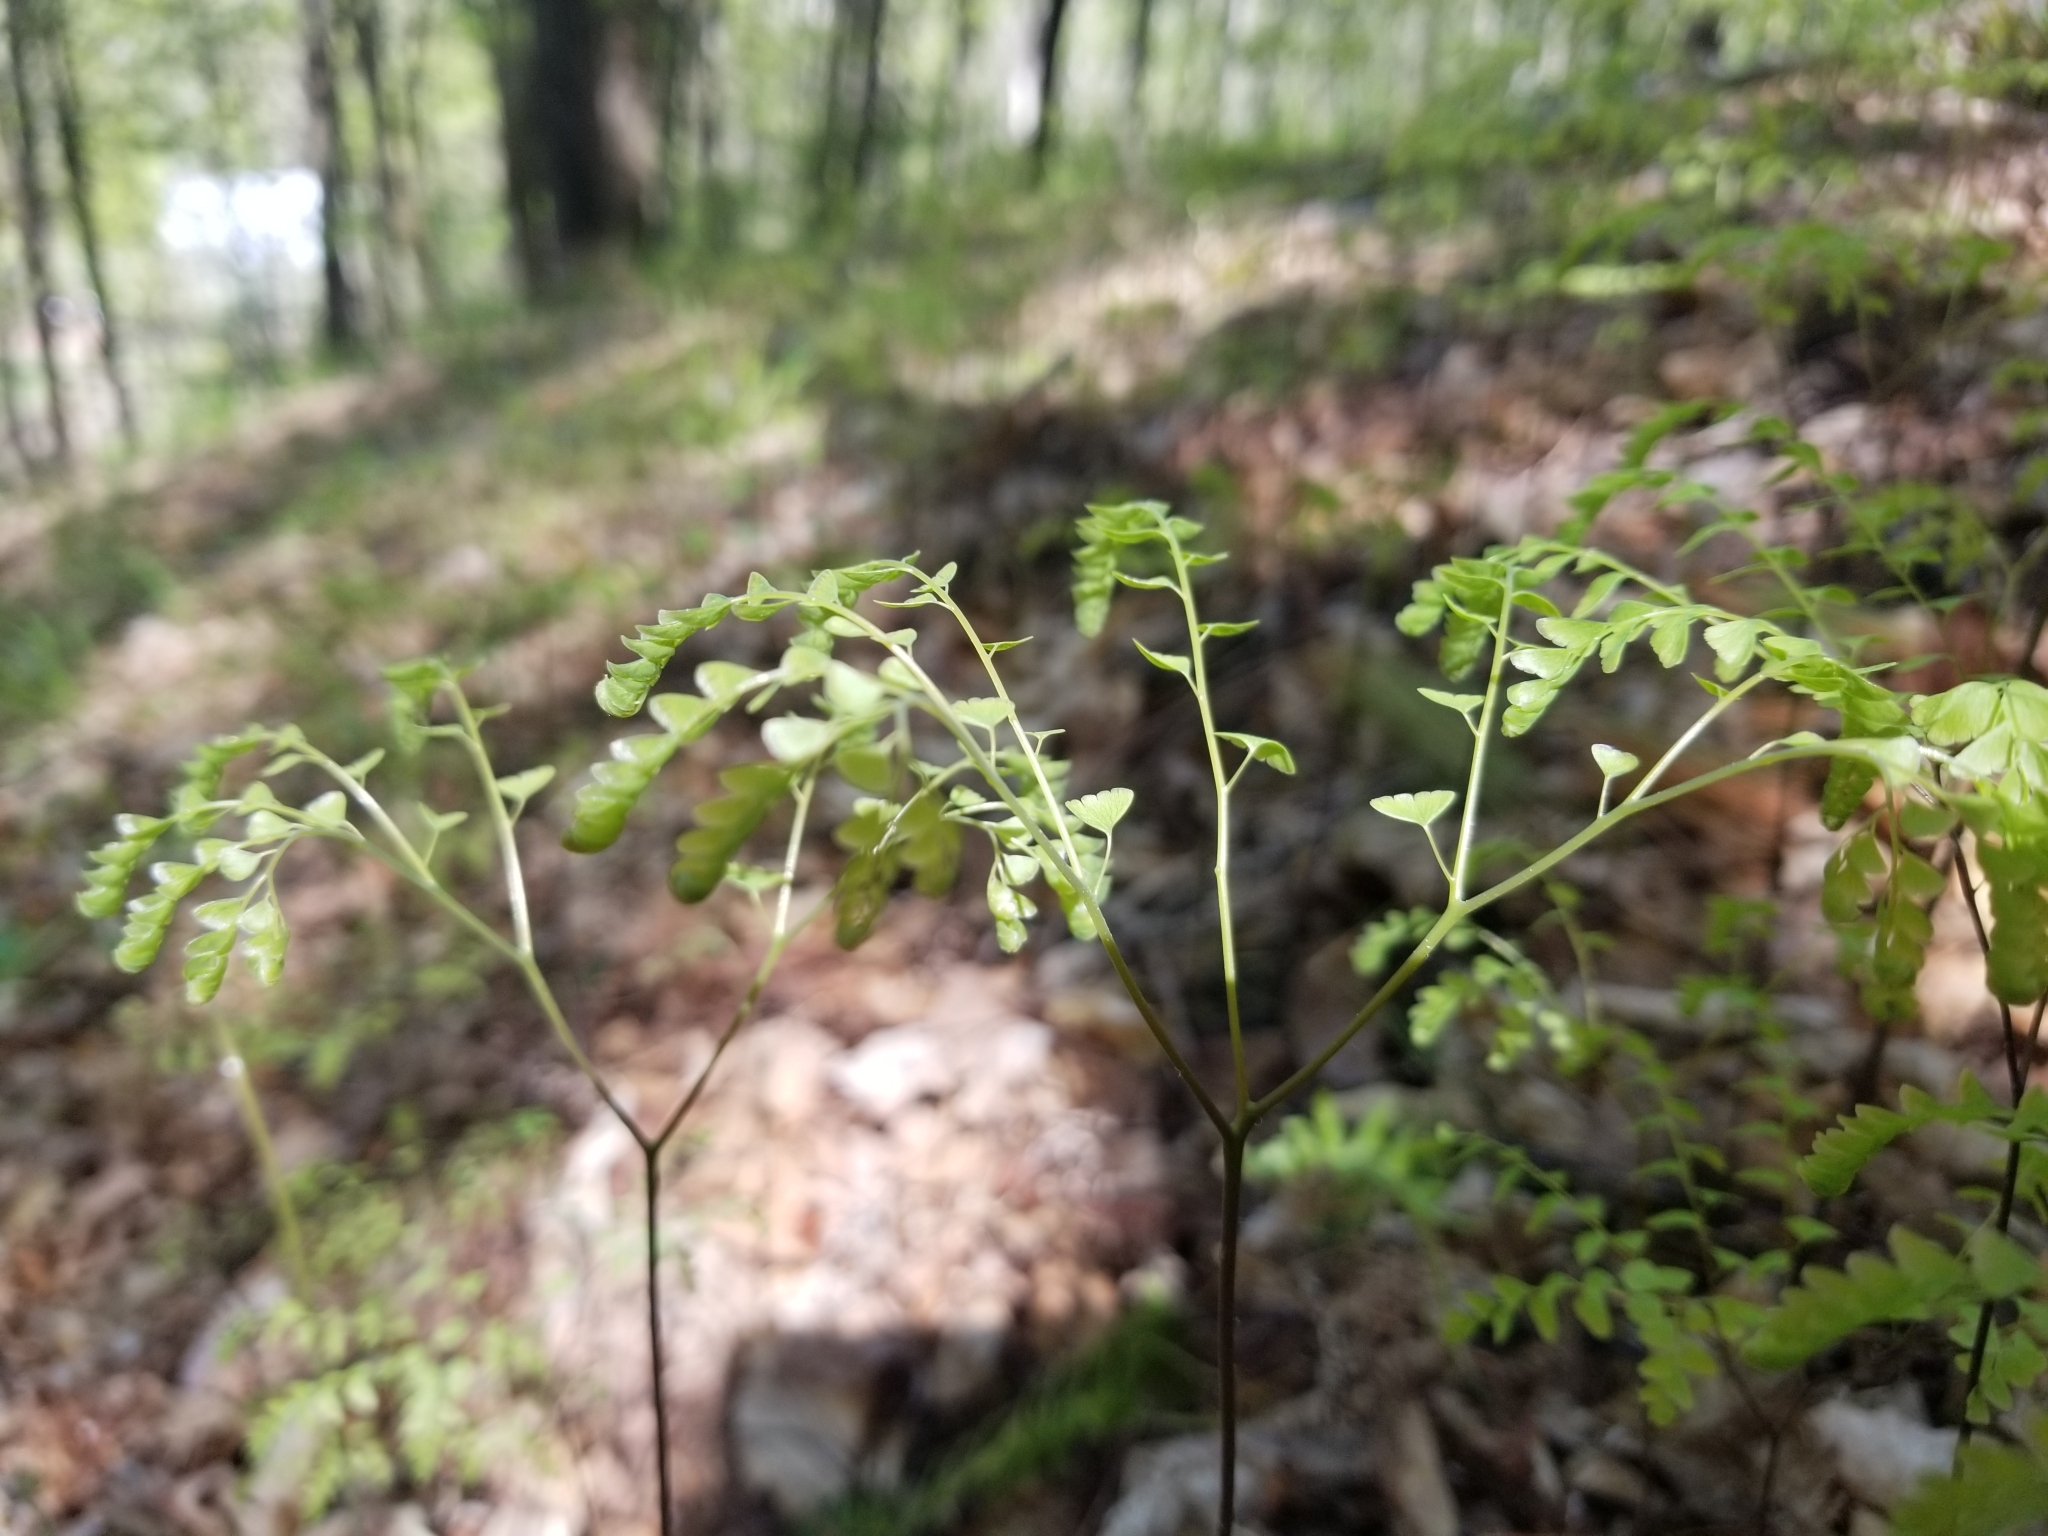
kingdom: Plantae
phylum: Tracheophyta
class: Polypodiopsida
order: Polypodiales
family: Pteridaceae
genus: Adiantum
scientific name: Adiantum pedatum
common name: Five-finger fern
